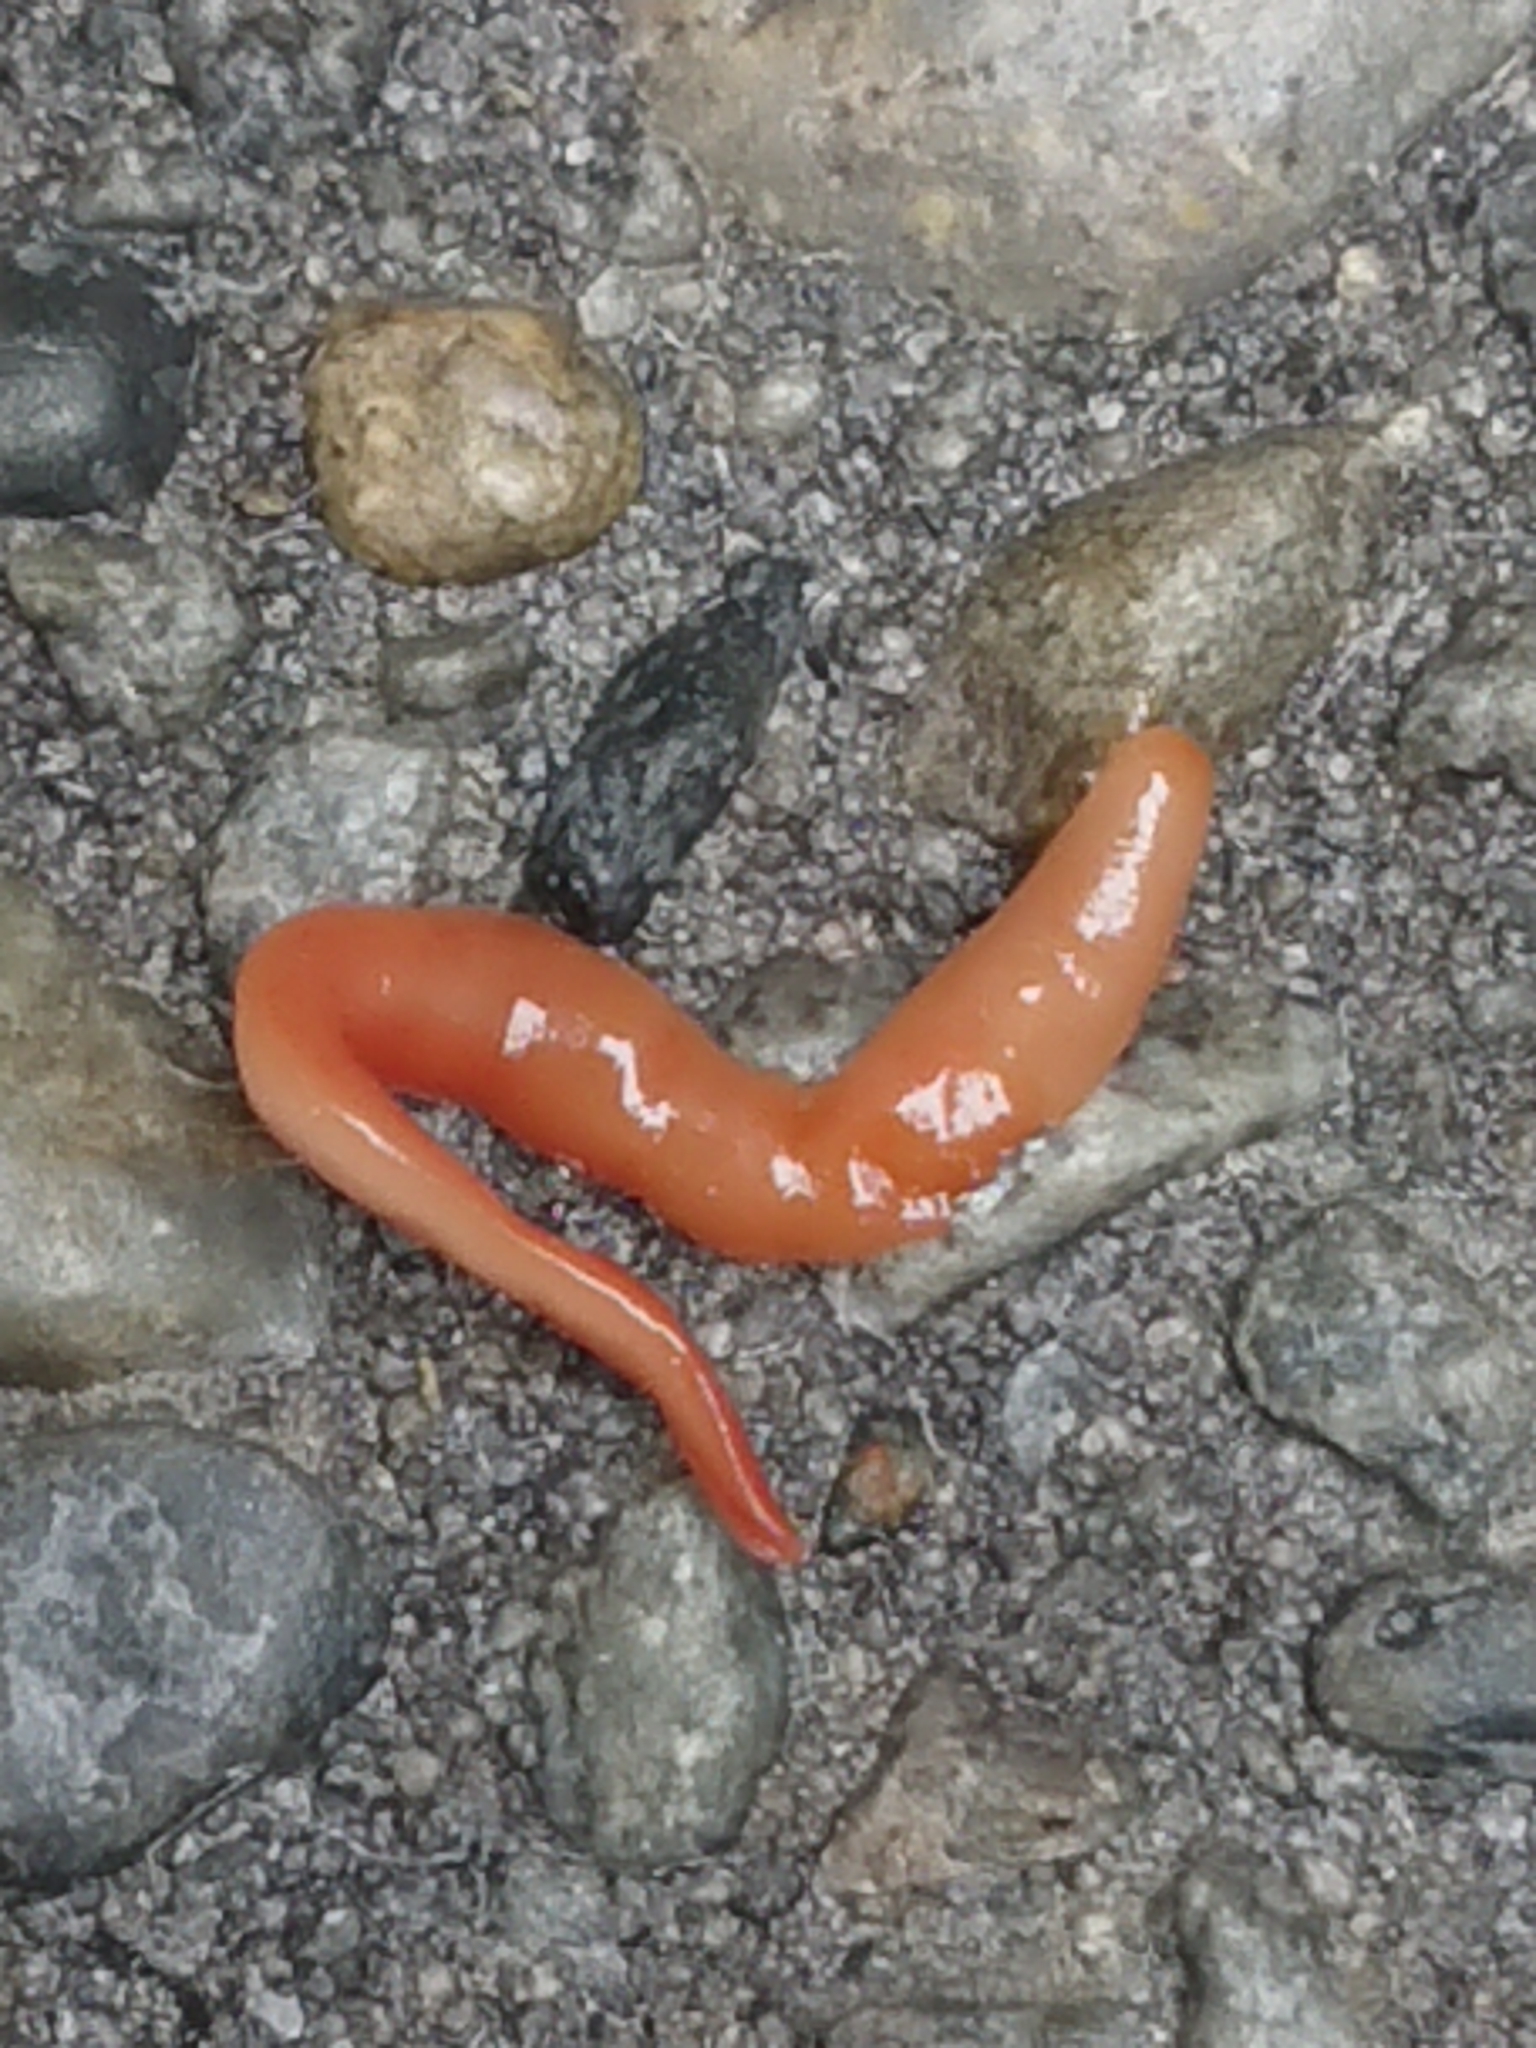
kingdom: Animalia
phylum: Platyhelminthes
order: Tricladida
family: Geoplanidae
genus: Australoplana
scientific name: Australoplana sanguinea
